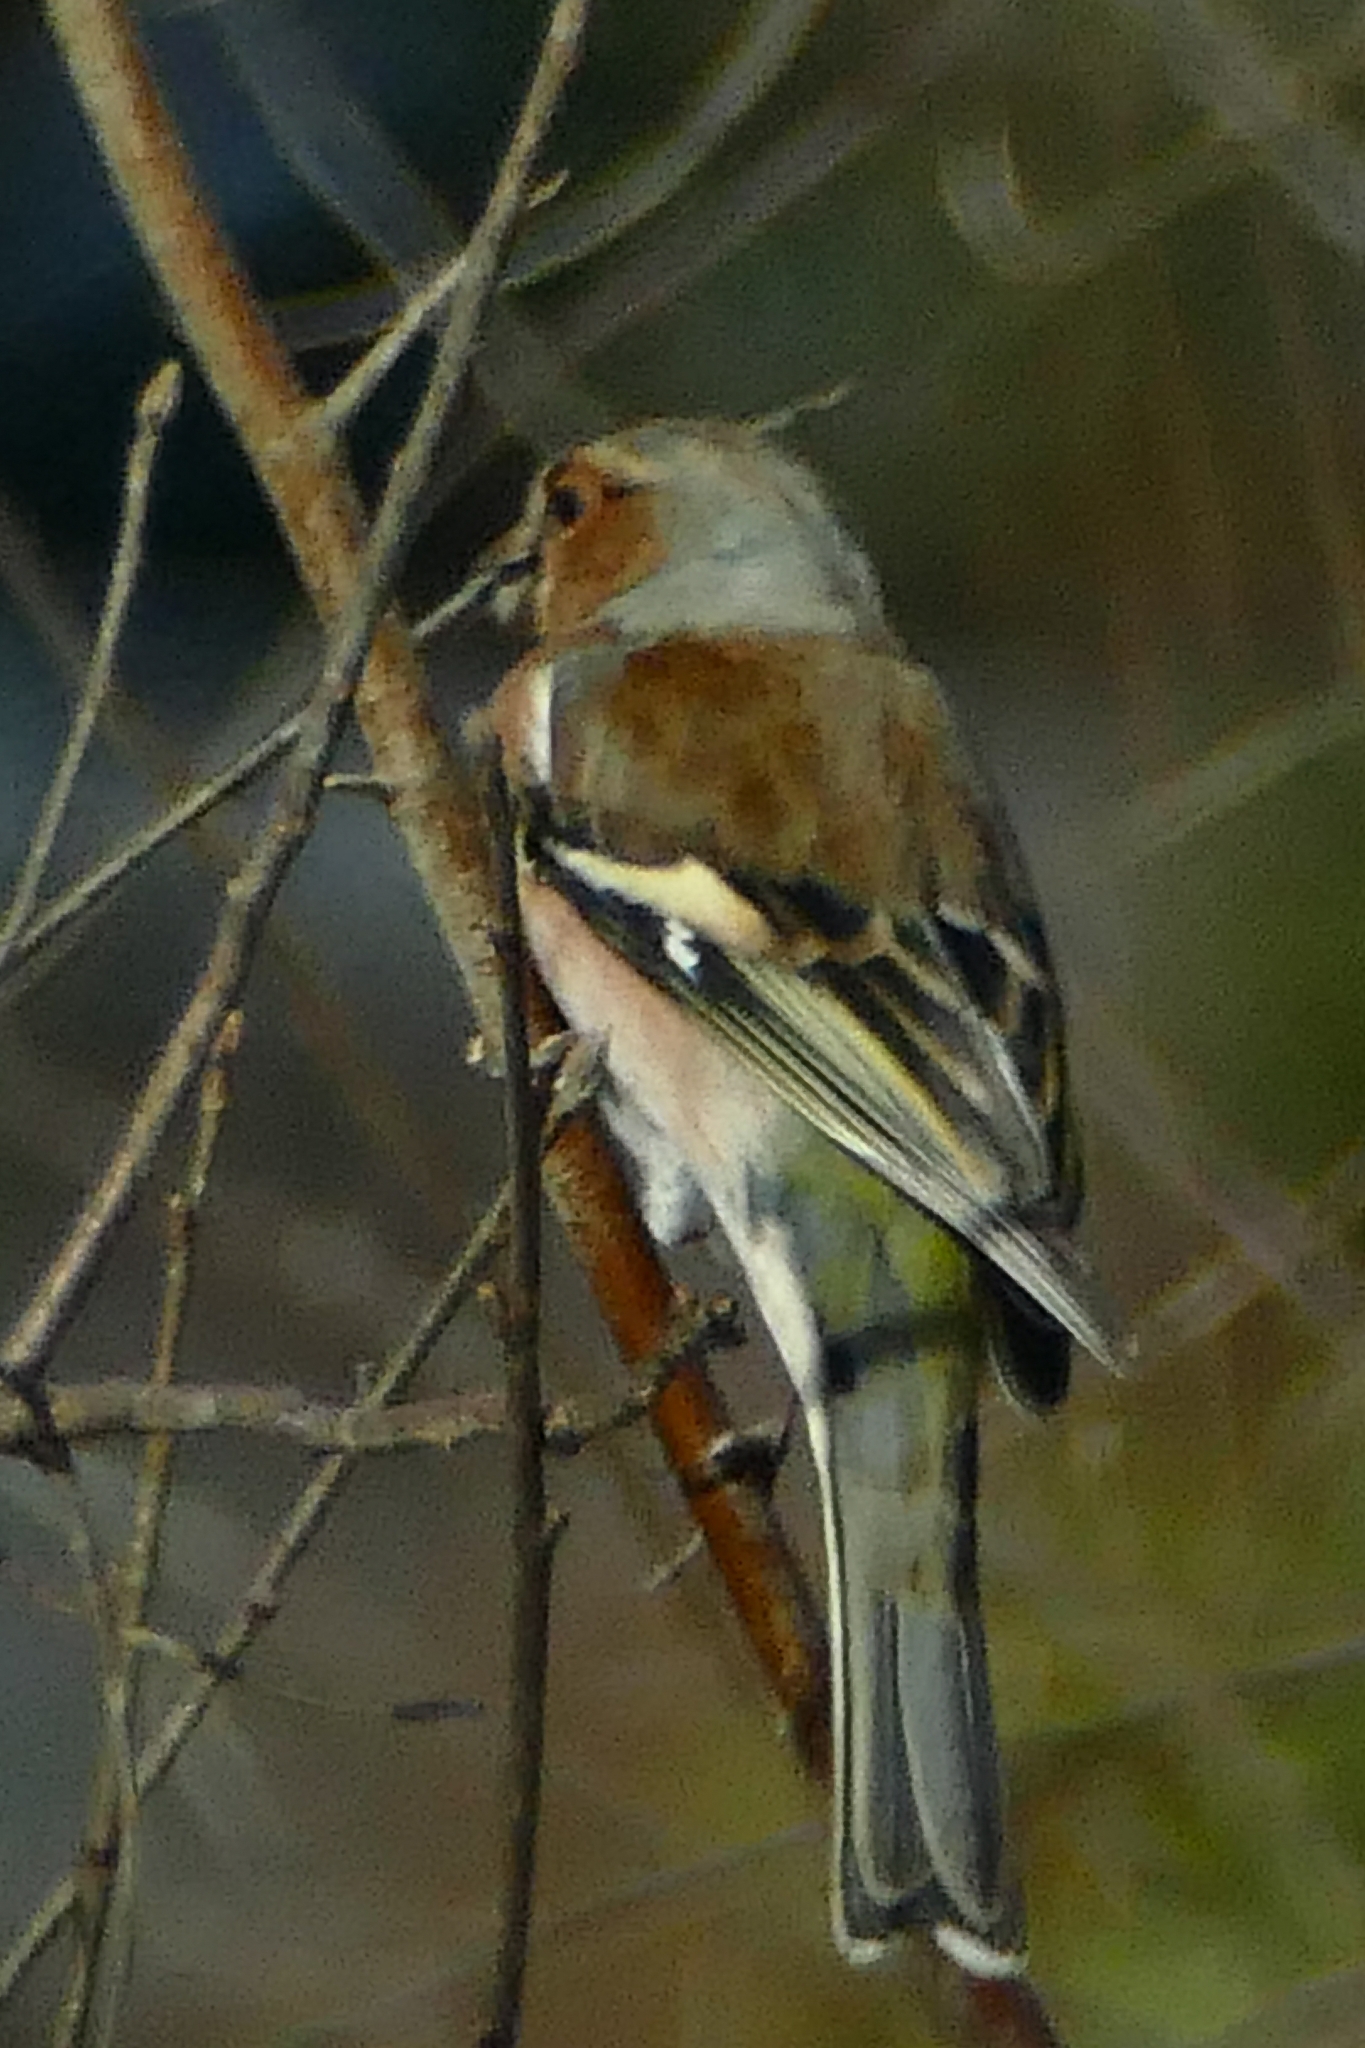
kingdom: Animalia
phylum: Chordata
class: Aves
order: Passeriformes
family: Fringillidae
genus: Fringilla
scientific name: Fringilla coelebs
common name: Common chaffinch
